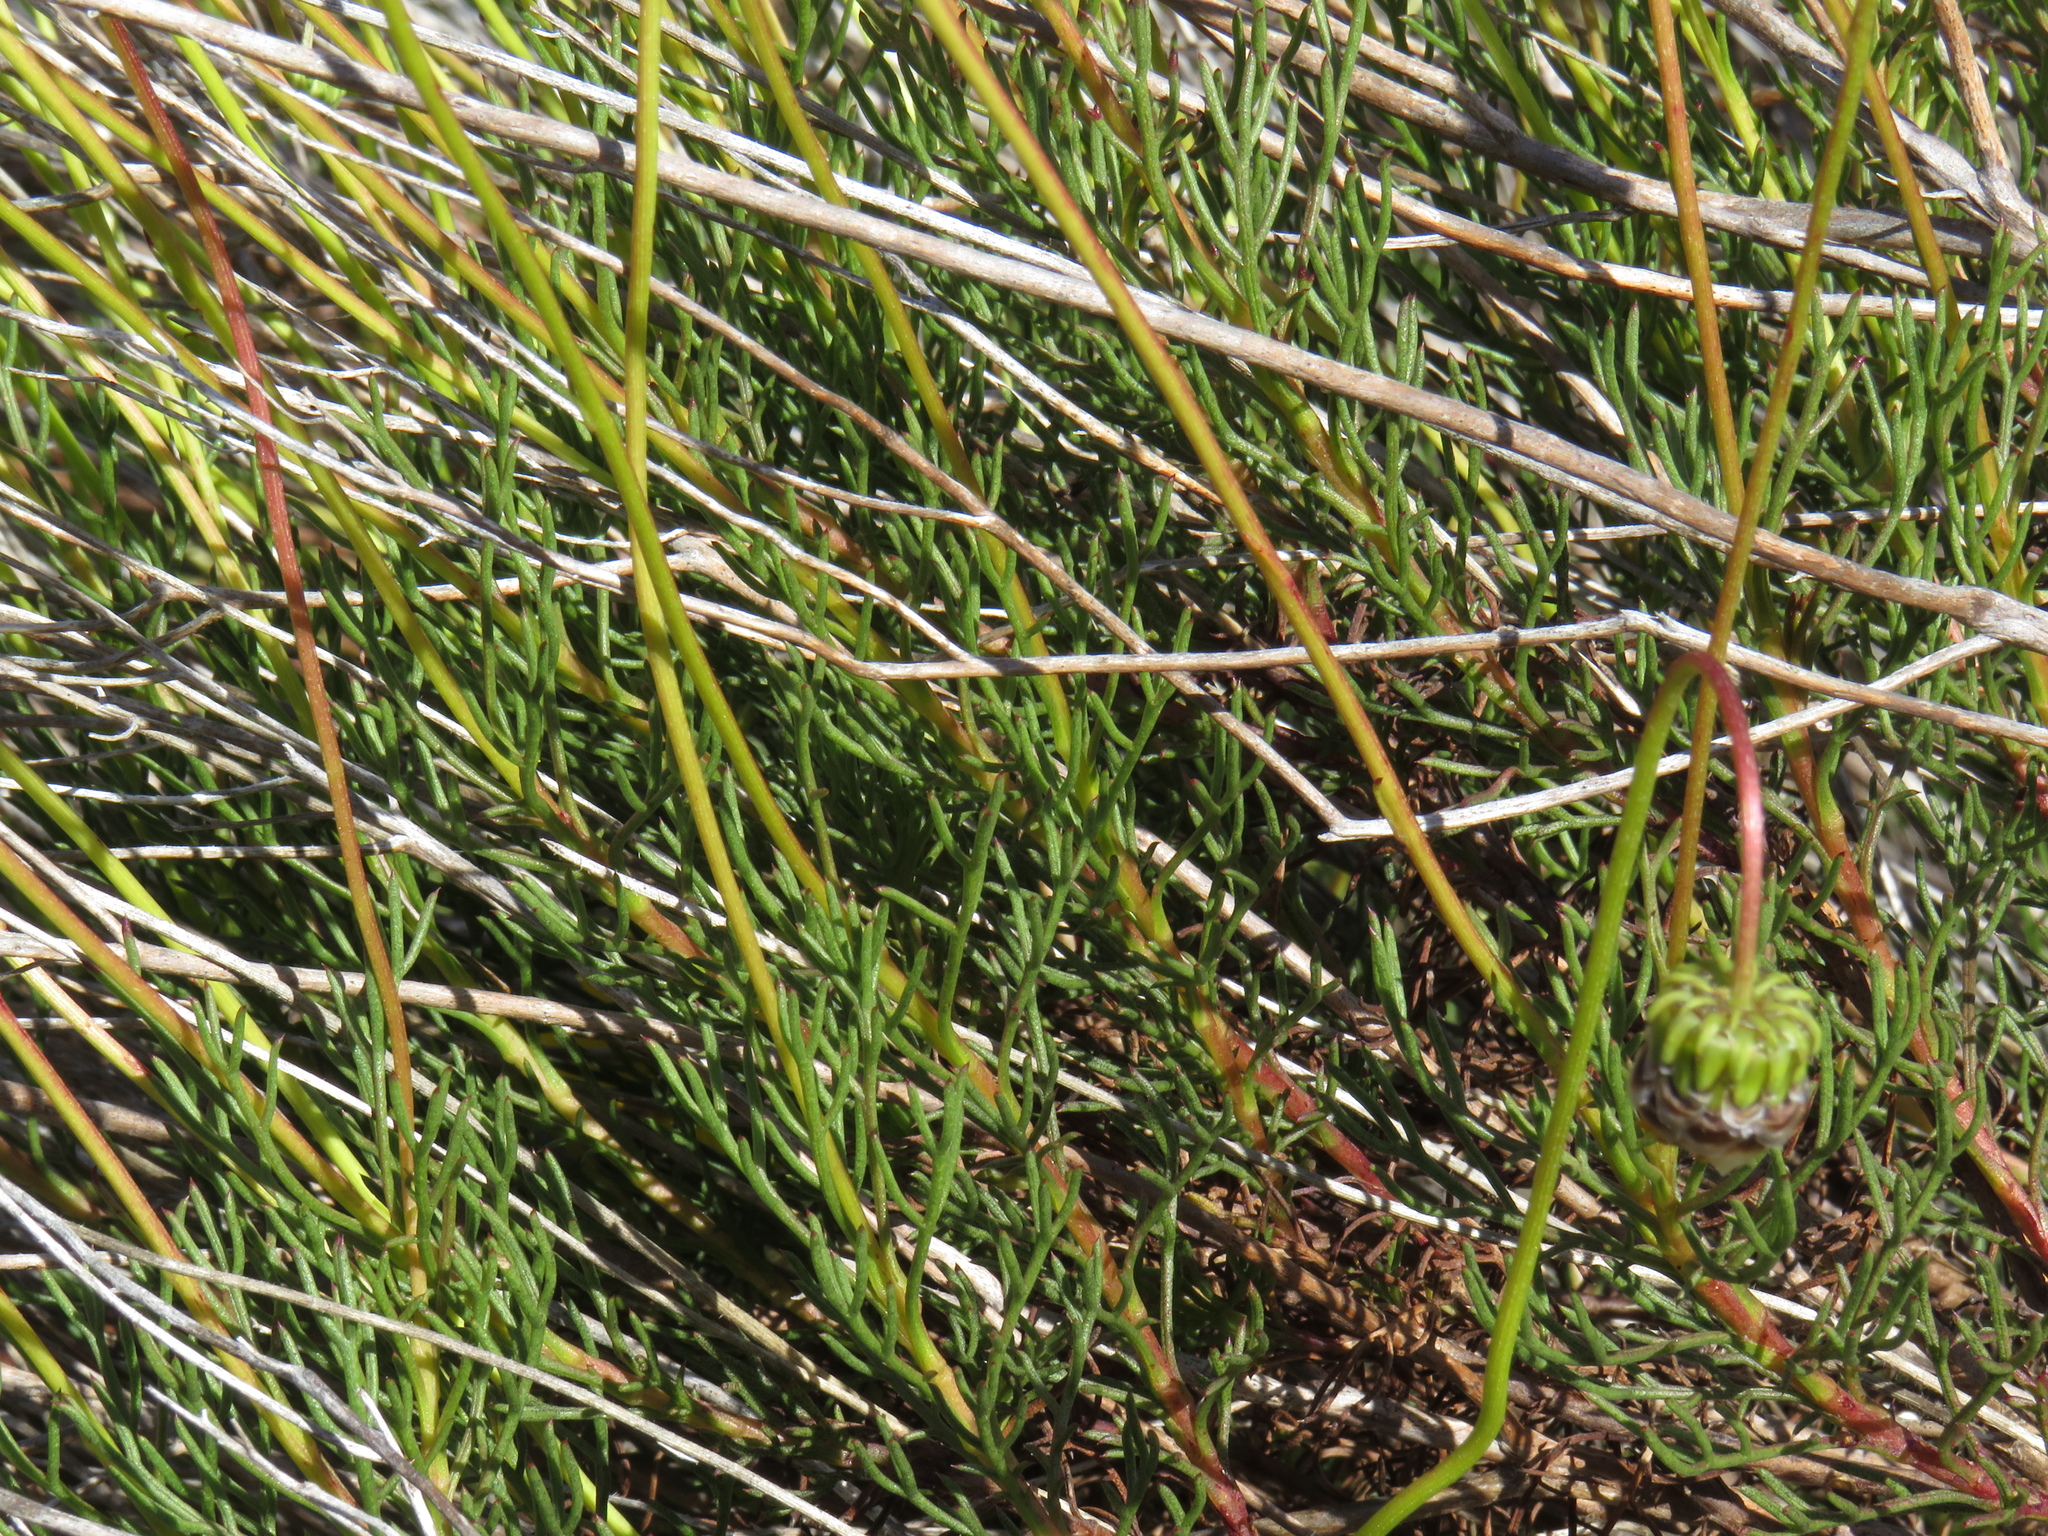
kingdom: Plantae
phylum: Tracheophyta
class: Magnoliopsida
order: Asterales
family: Asteraceae
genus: Ursinia
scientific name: Ursinia paleacea
